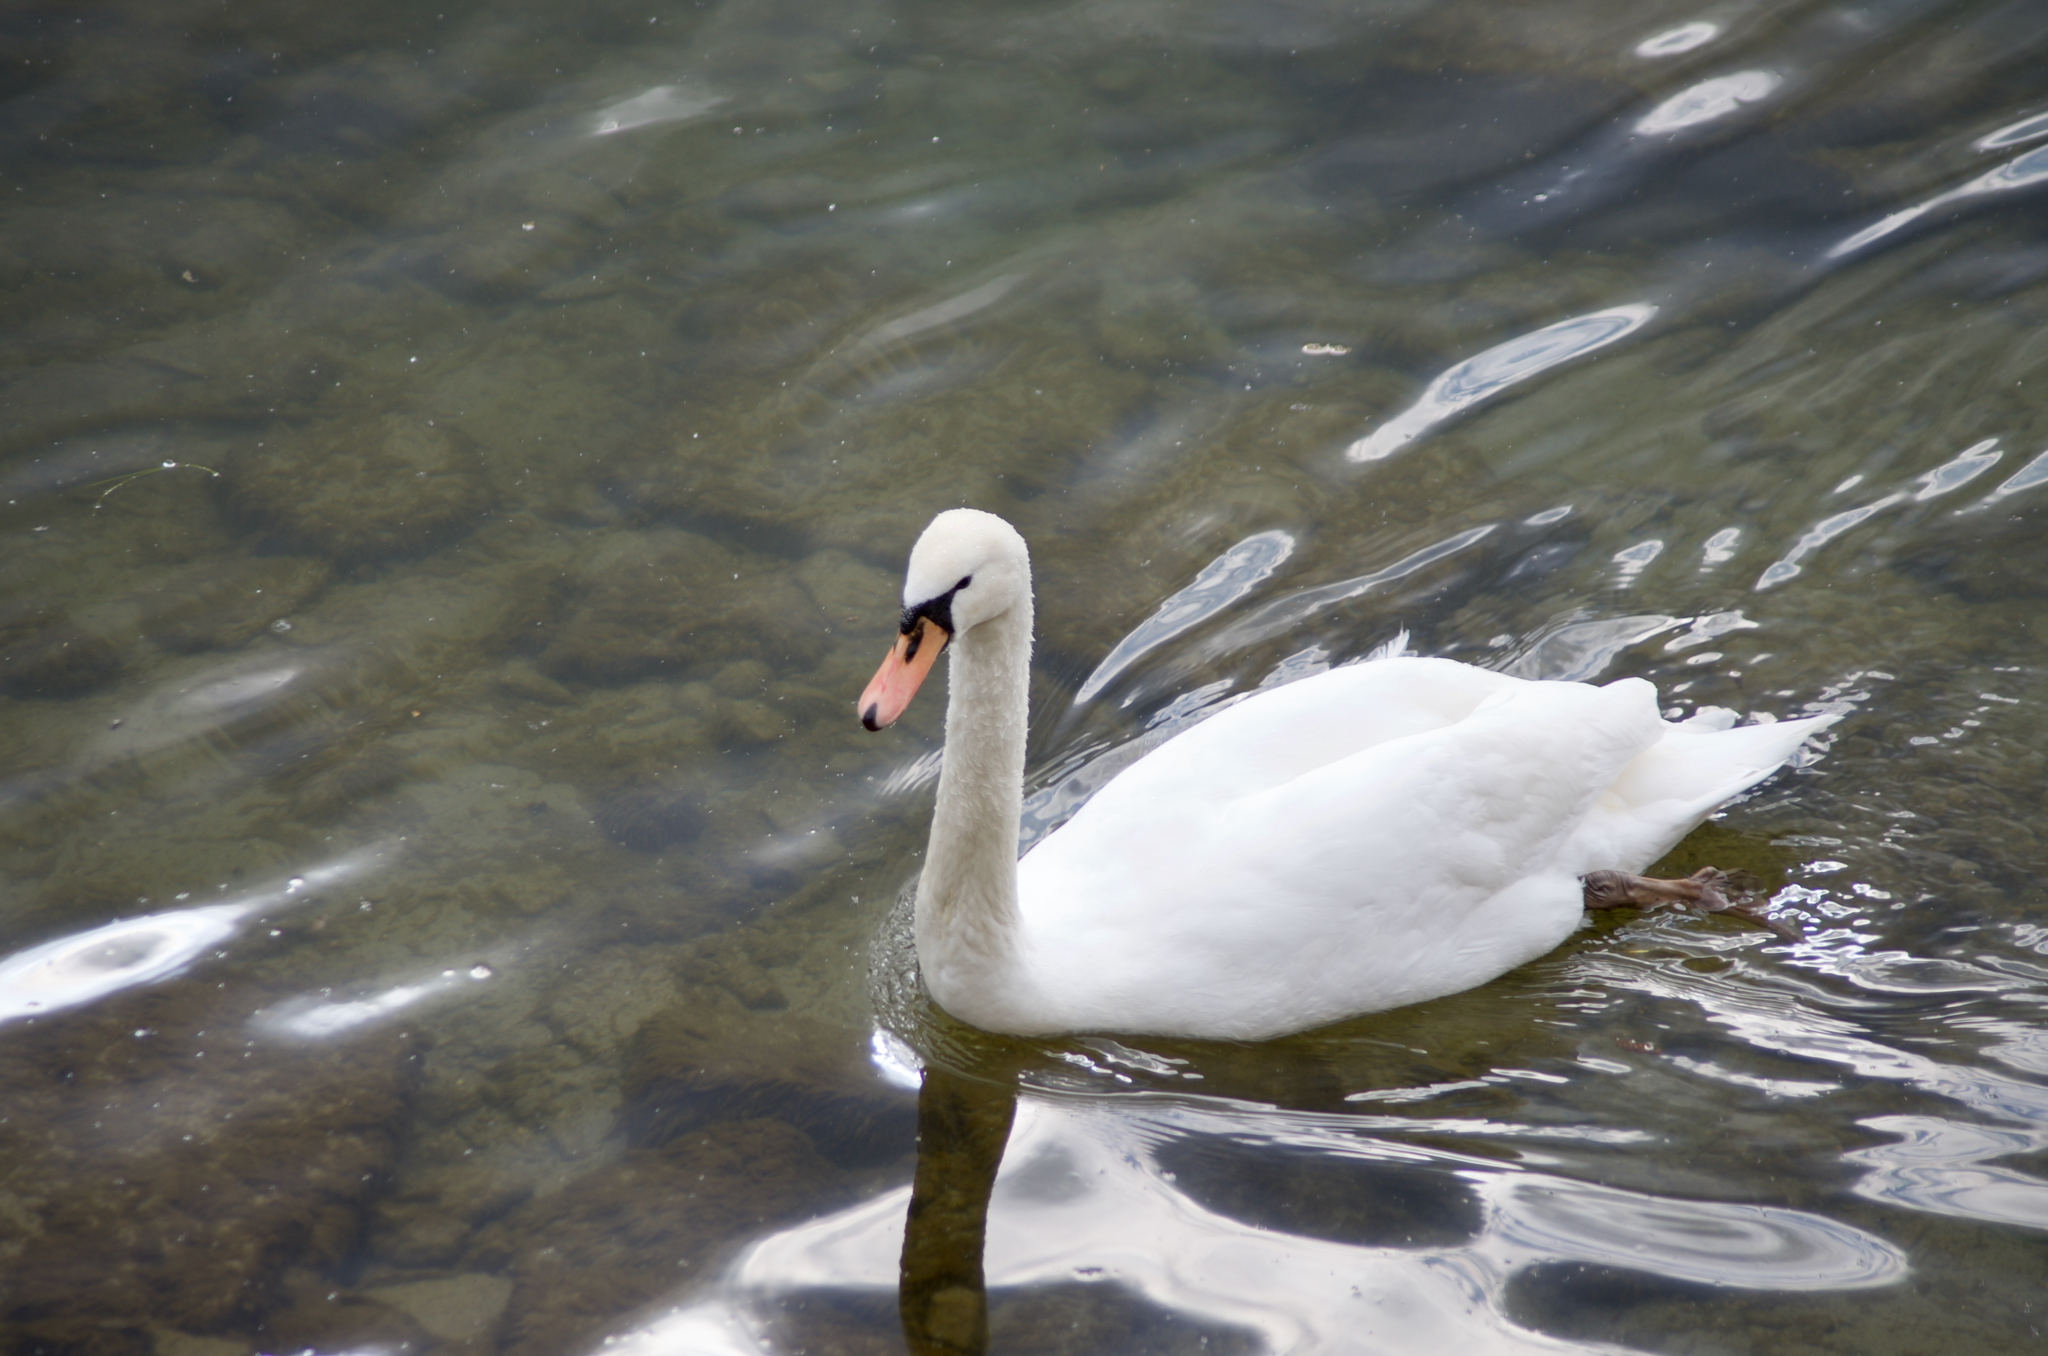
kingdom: Animalia
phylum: Chordata
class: Aves
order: Anseriformes
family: Anatidae
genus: Cygnus
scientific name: Cygnus olor
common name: Mute swan
